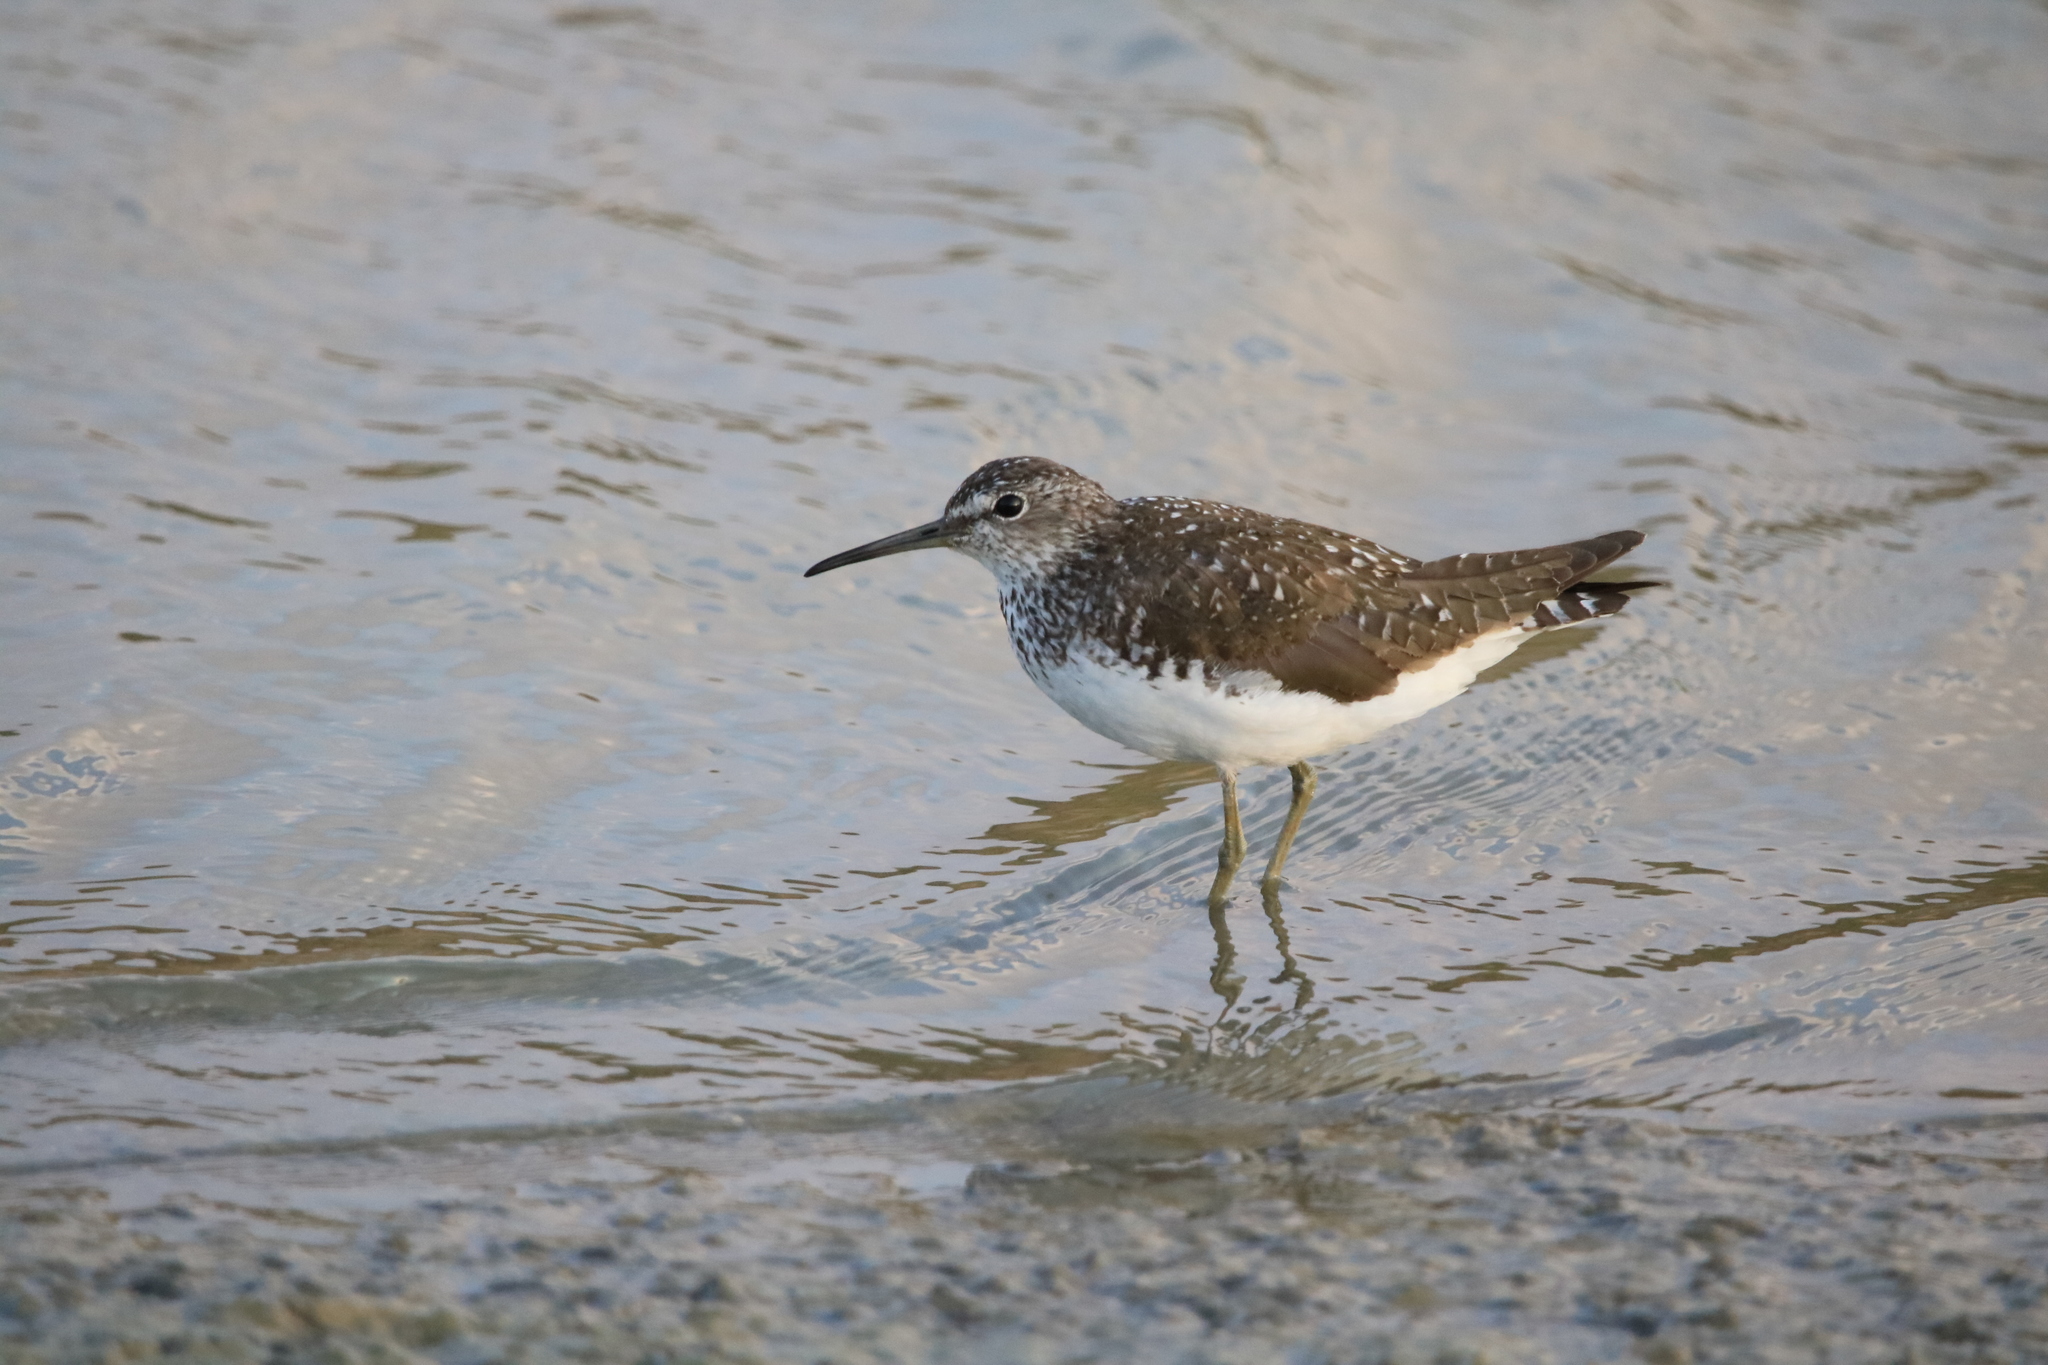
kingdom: Animalia
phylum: Chordata
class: Aves
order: Charadriiformes
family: Scolopacidae
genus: Tringa
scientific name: Tringa ochropus
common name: Green sandpiper
